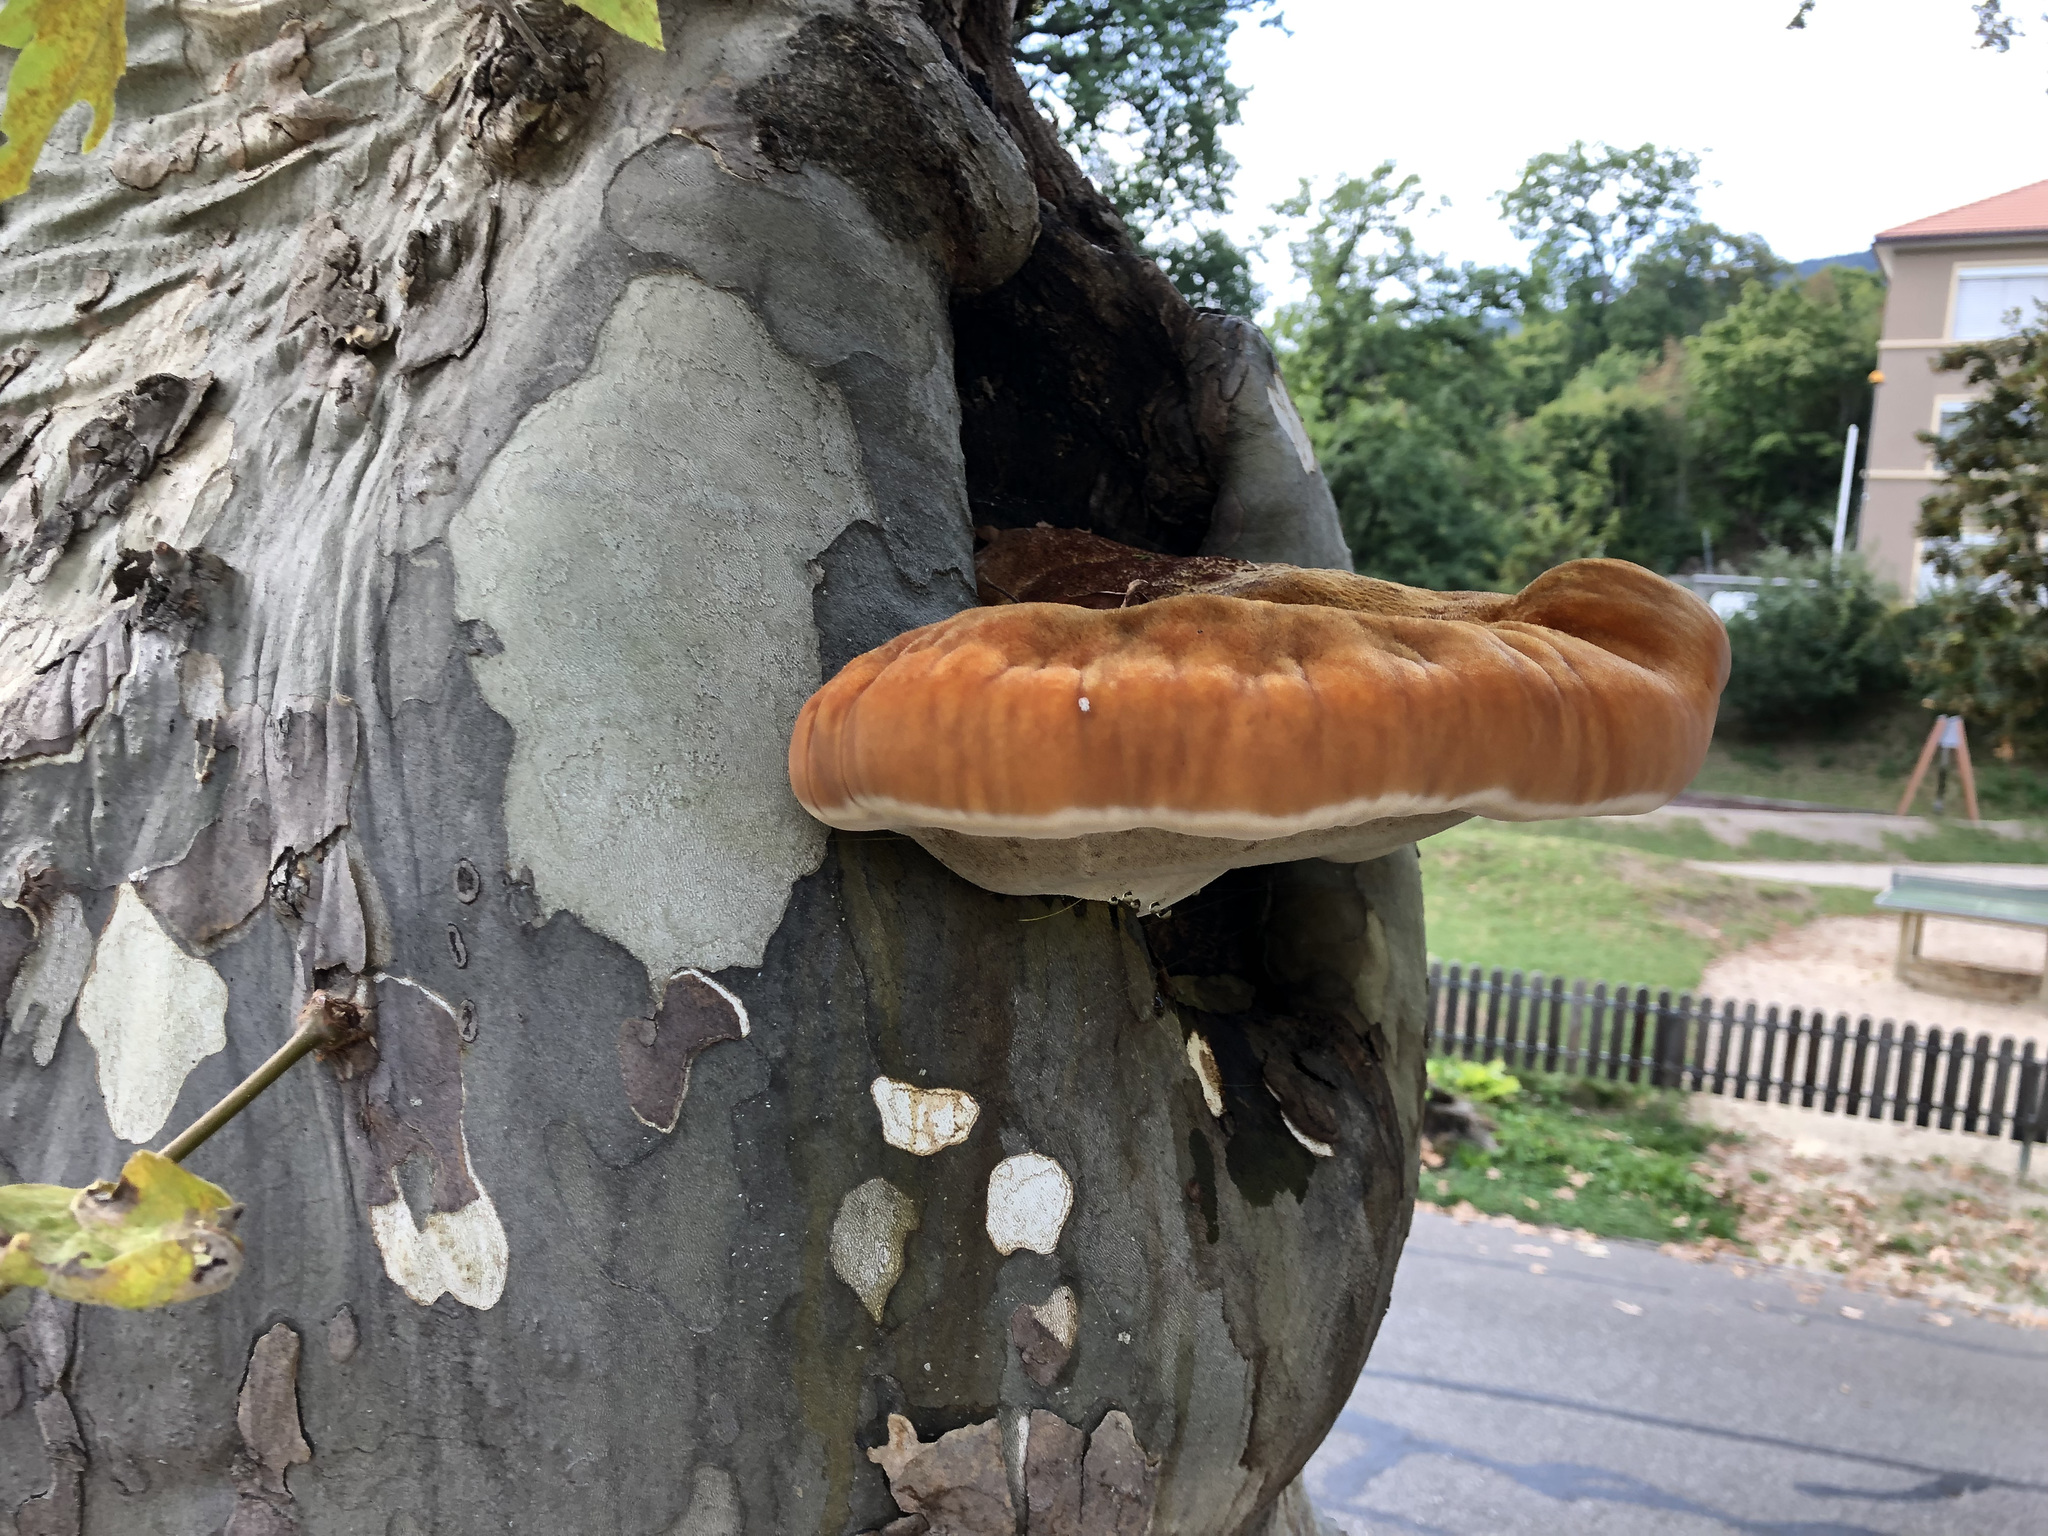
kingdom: Fungi
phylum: Basidiomycota
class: Agaricomycetes
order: Hymenochaetales
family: Hymenochaetaceae
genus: Inonotus
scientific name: Inonotus hispidus
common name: Shaggy bracket
